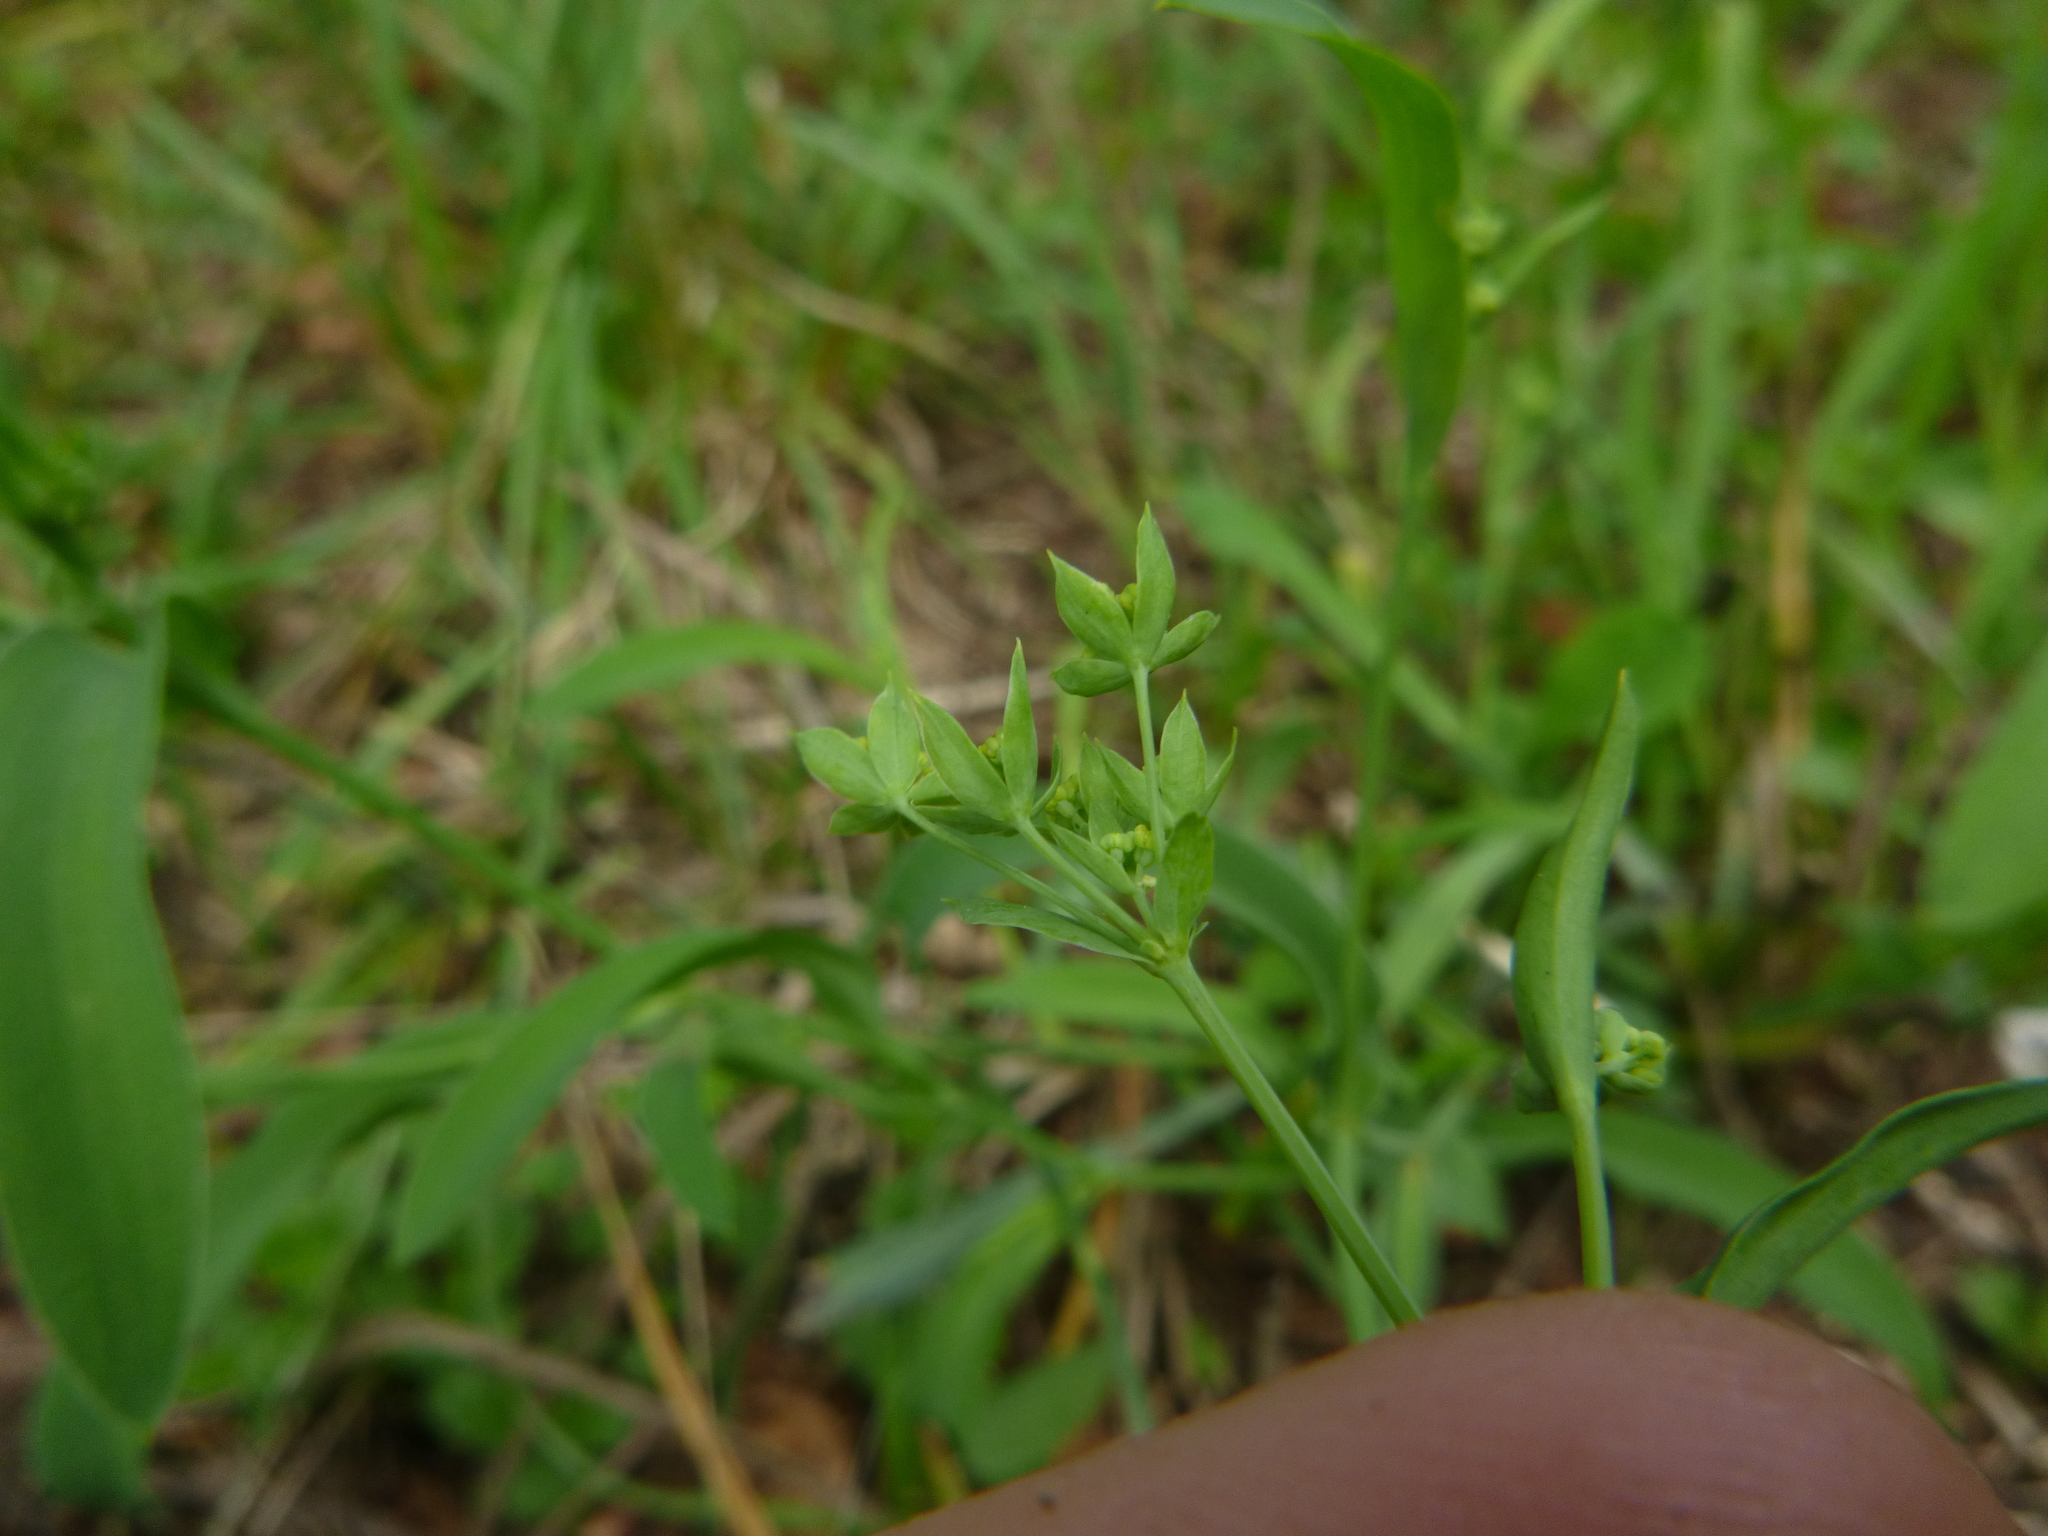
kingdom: Plantae
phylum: Tracheophyta
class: Magnoliopsida
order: Apiales
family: Apiaceae
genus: Bupleurum
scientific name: Bupleurum falcatum
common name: Sickle-leaved hare's-ear
